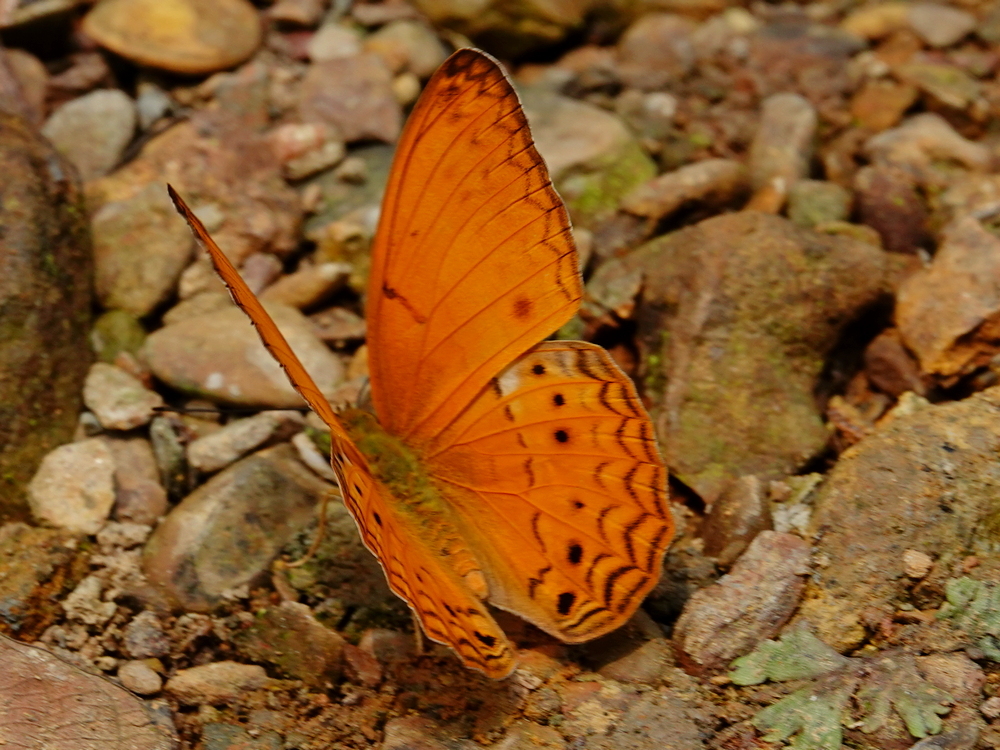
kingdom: Animalia
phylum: Arthropoda
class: Insecta
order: Lepidoptera
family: Nymphalidae
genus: Cirrochroa
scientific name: Cirrochroa tyche
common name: Common yeoman
